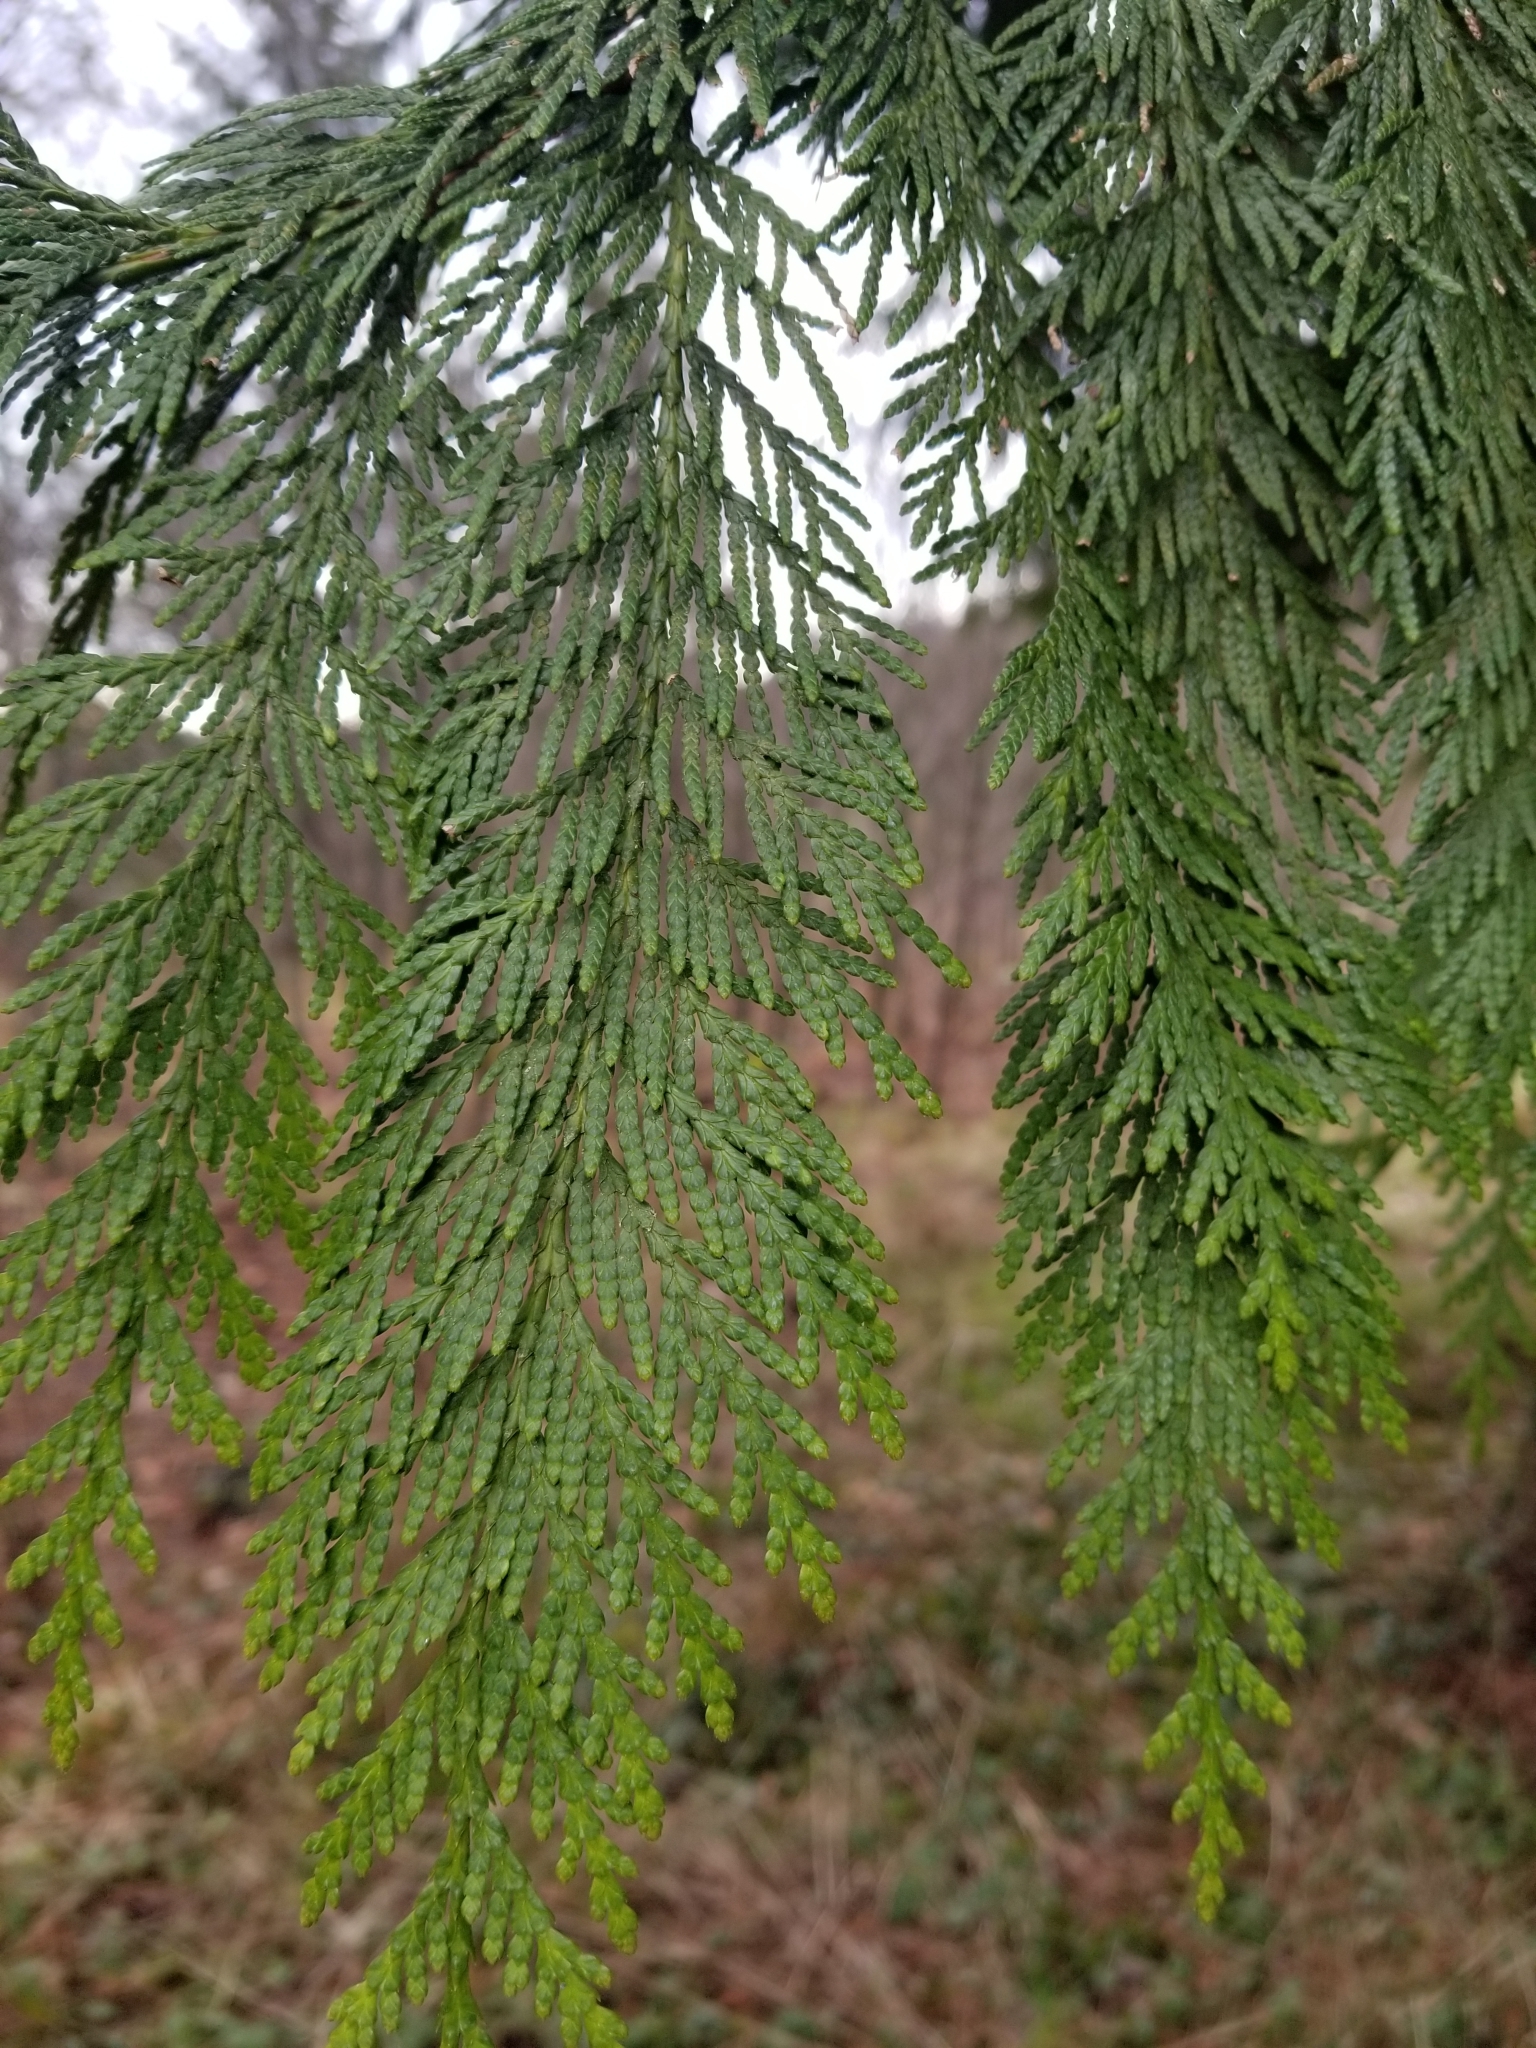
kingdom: Plantae
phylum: Tracheophyta
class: Pinopsida
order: Pinales
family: Cupressaceae
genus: Thuja
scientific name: Thuja plicata
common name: Western red-cedar
